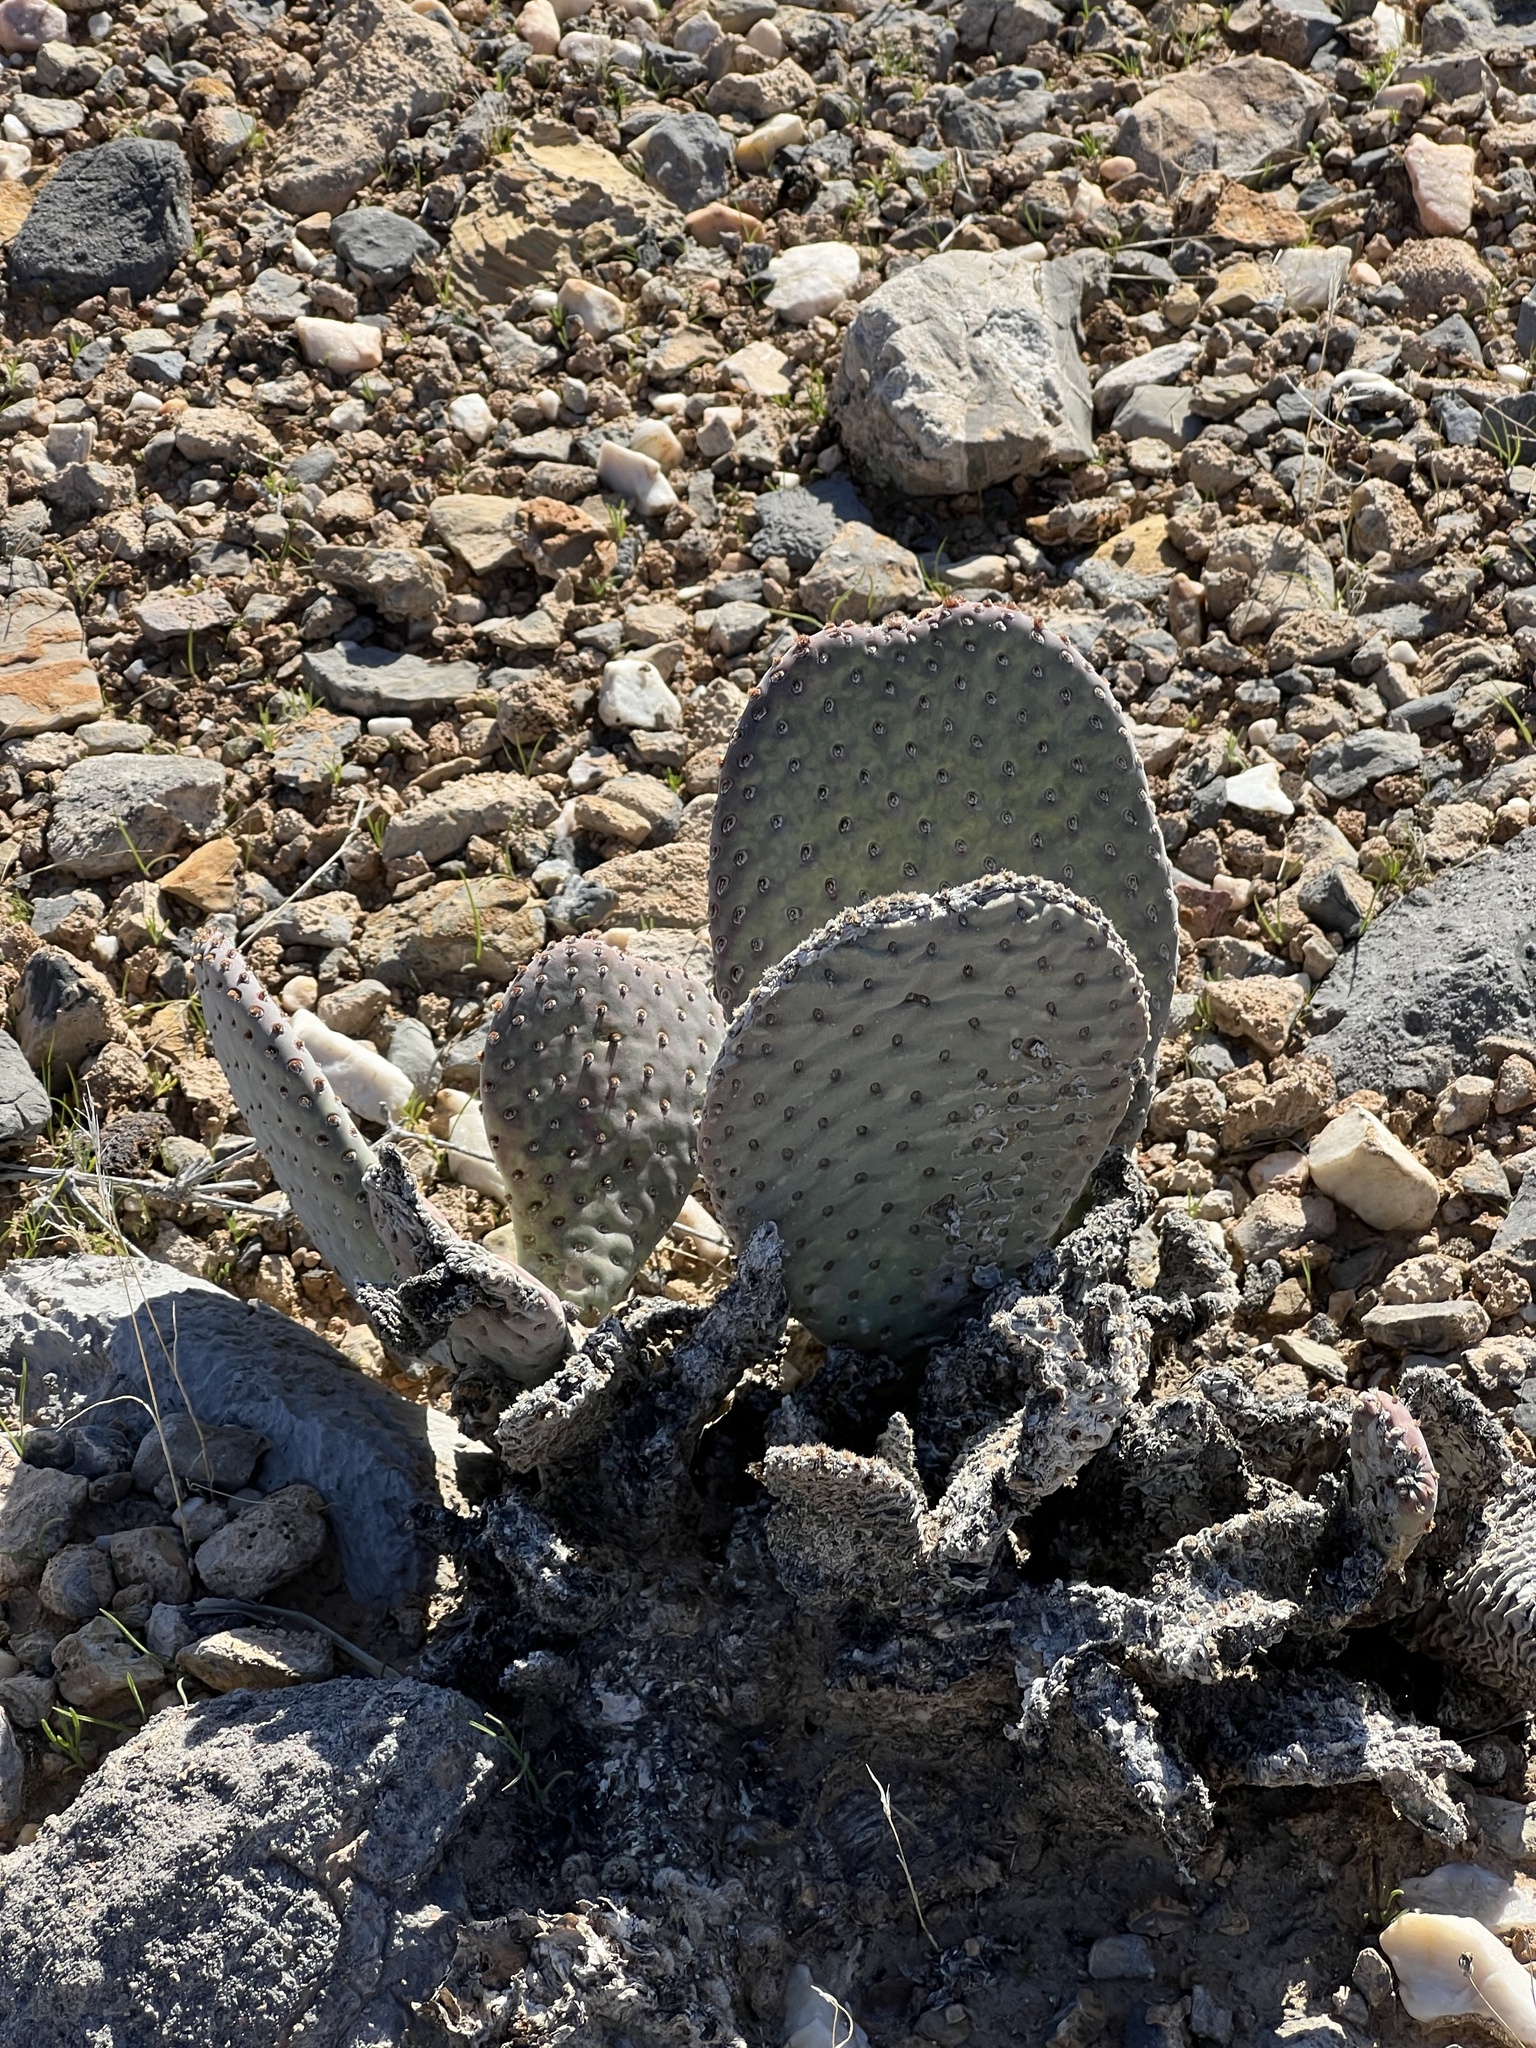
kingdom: Plantae
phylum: Tracheophyta
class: Magnoliopsida
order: Caryophyllales
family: Cactaceae
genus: Opuntia
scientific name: Opuntia basilaris
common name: Beavertail prickly-pear
